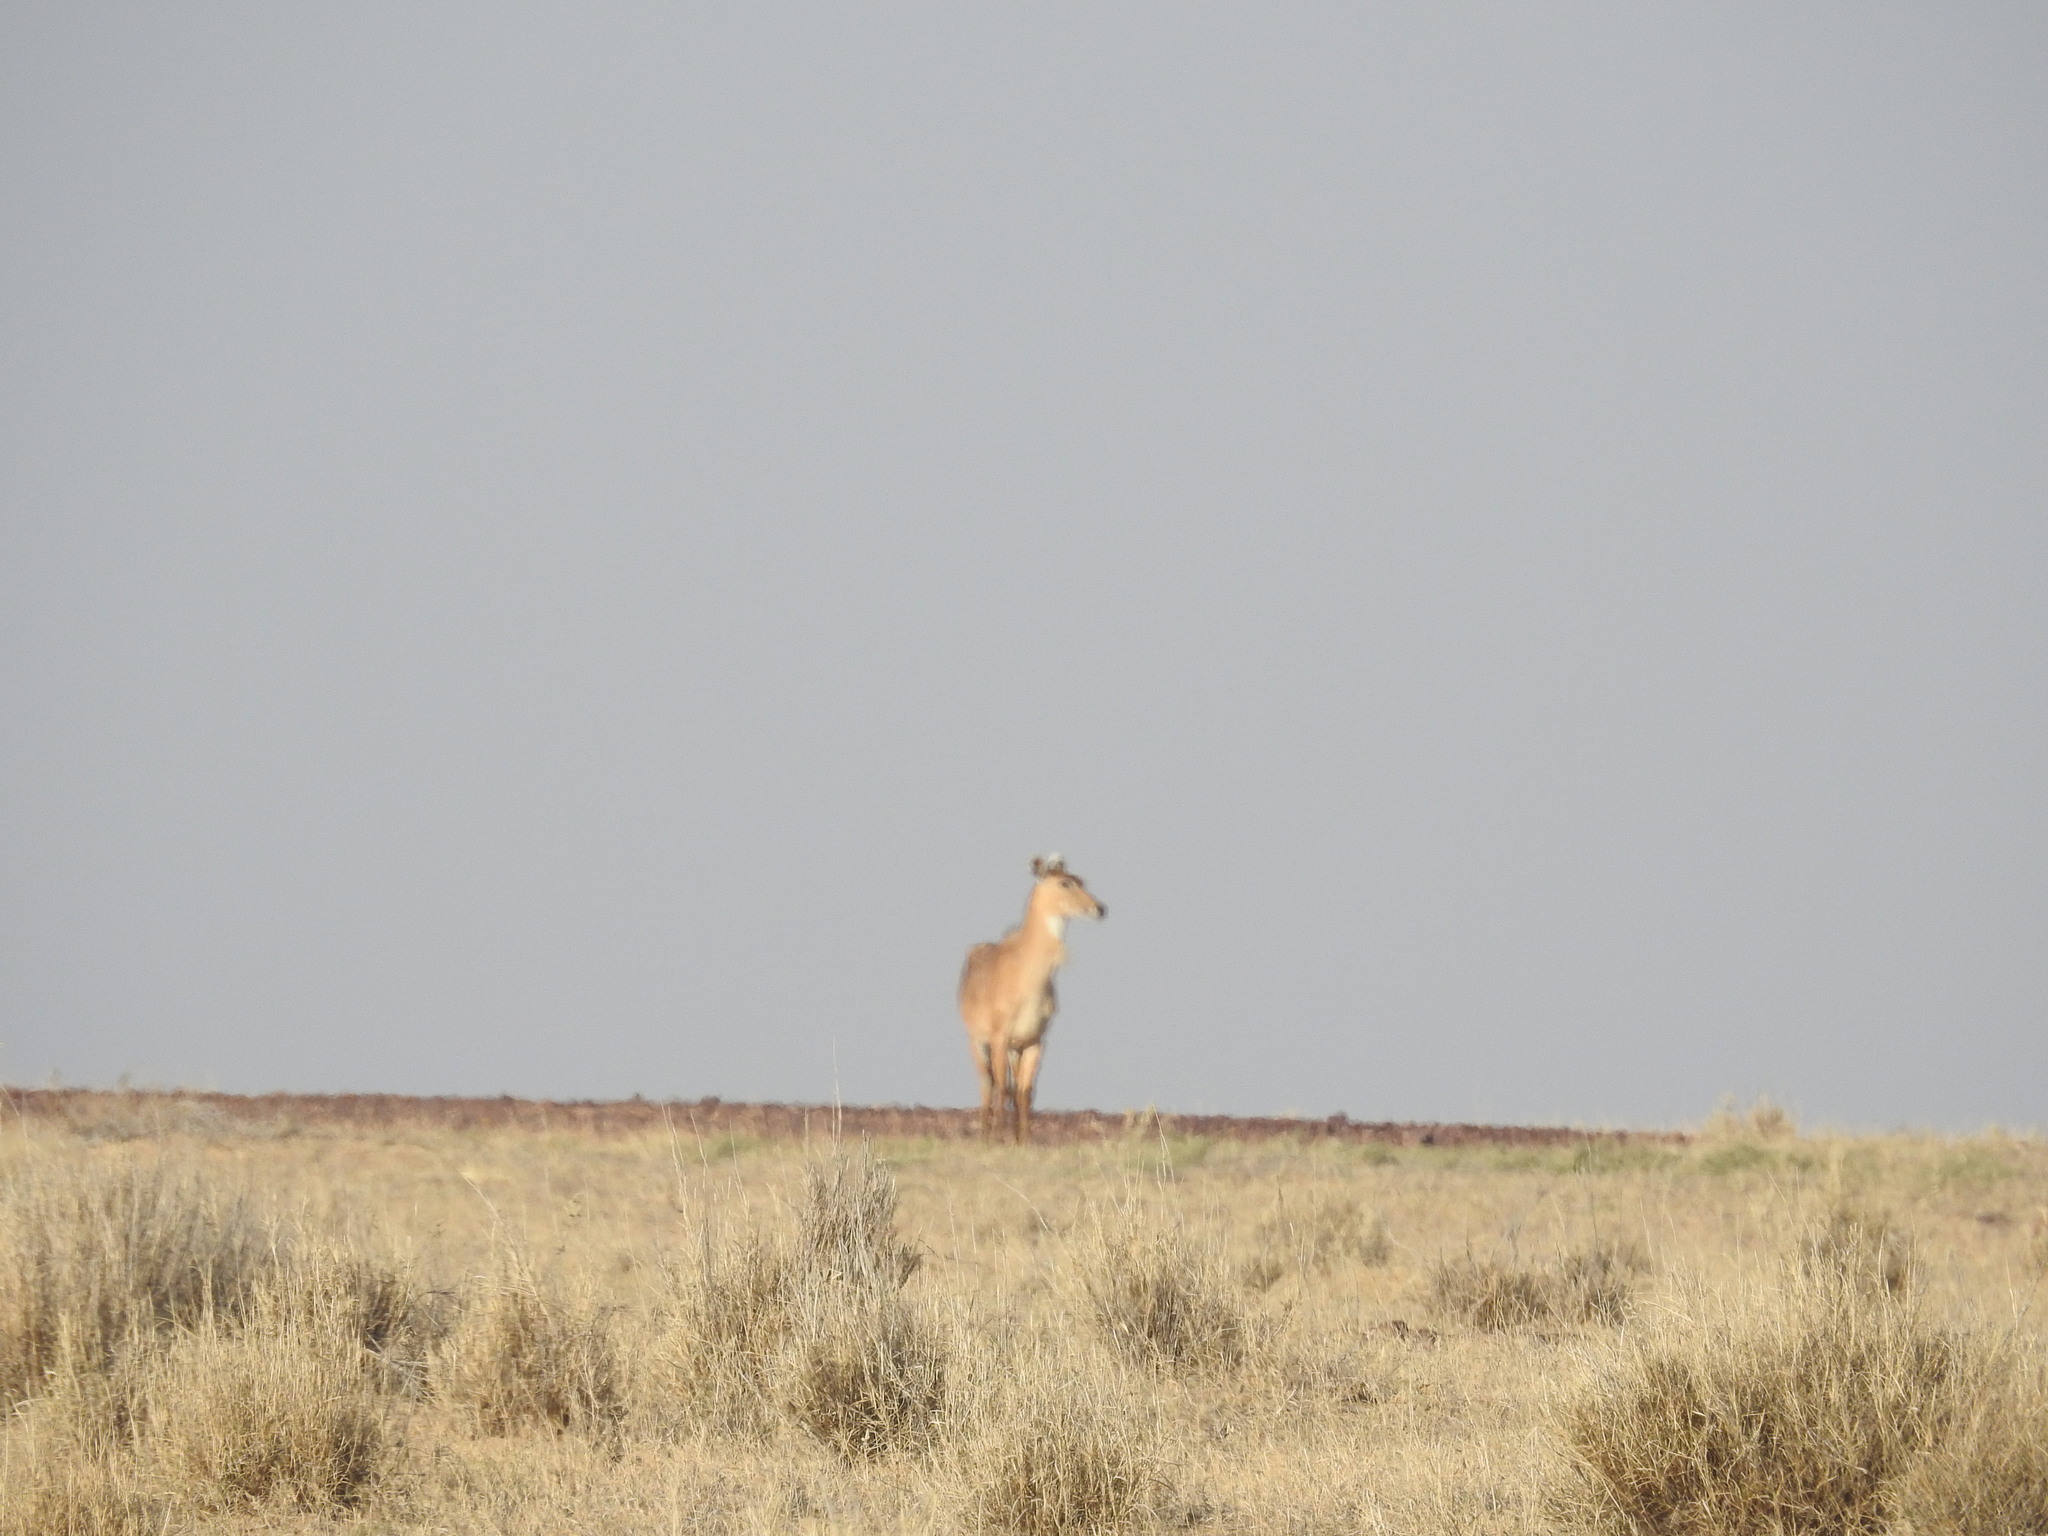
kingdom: Animalia
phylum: Chordata
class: Mammalia
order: Artiodactyla
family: Bovidae
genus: Boselaphus
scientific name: Boselaphus tragocamelus
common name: Nilgai
